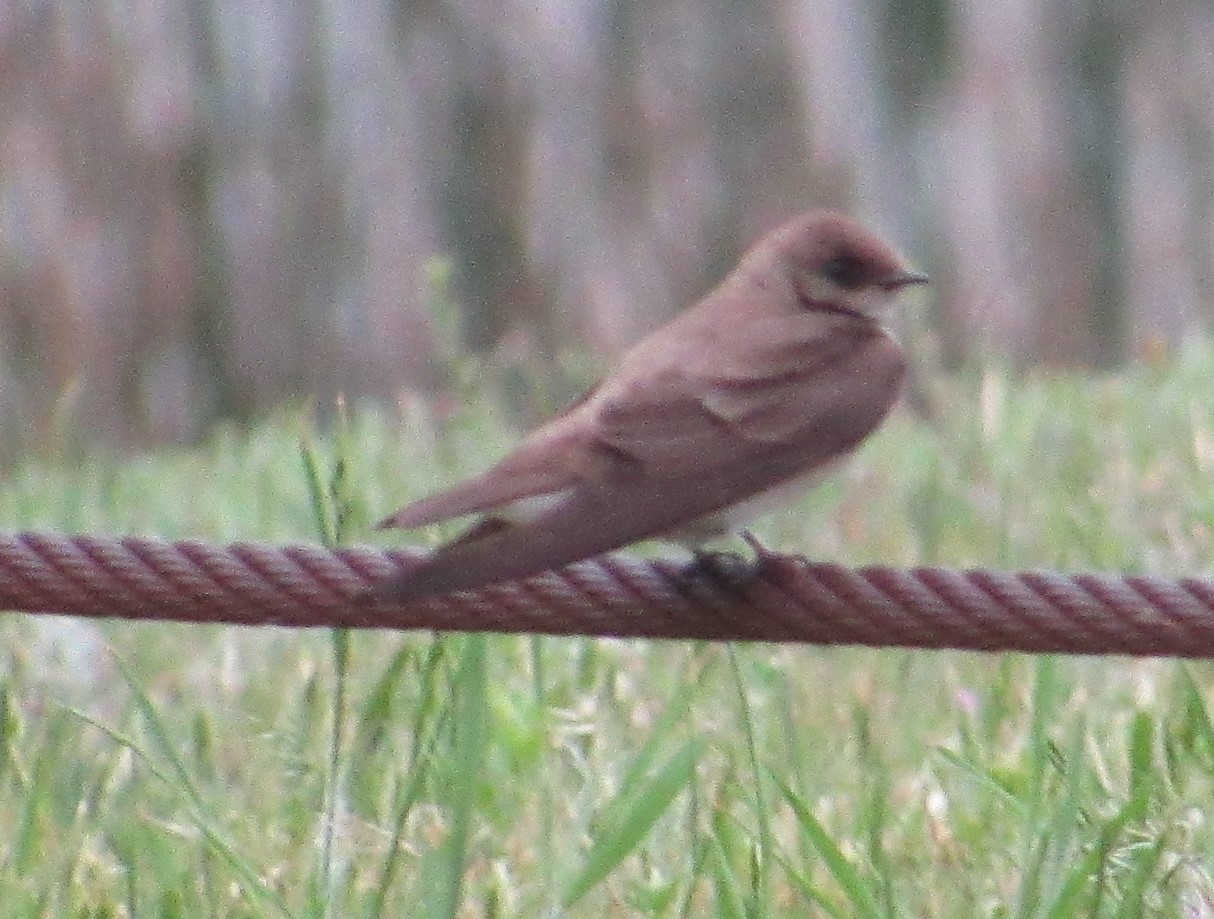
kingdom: Animalia
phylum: Chordata
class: Aves
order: Passeriformes
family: Hirundinidae
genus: Stelgidopteryx
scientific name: Stelgidopteryx serripennis
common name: Northern rough-winged swallow
